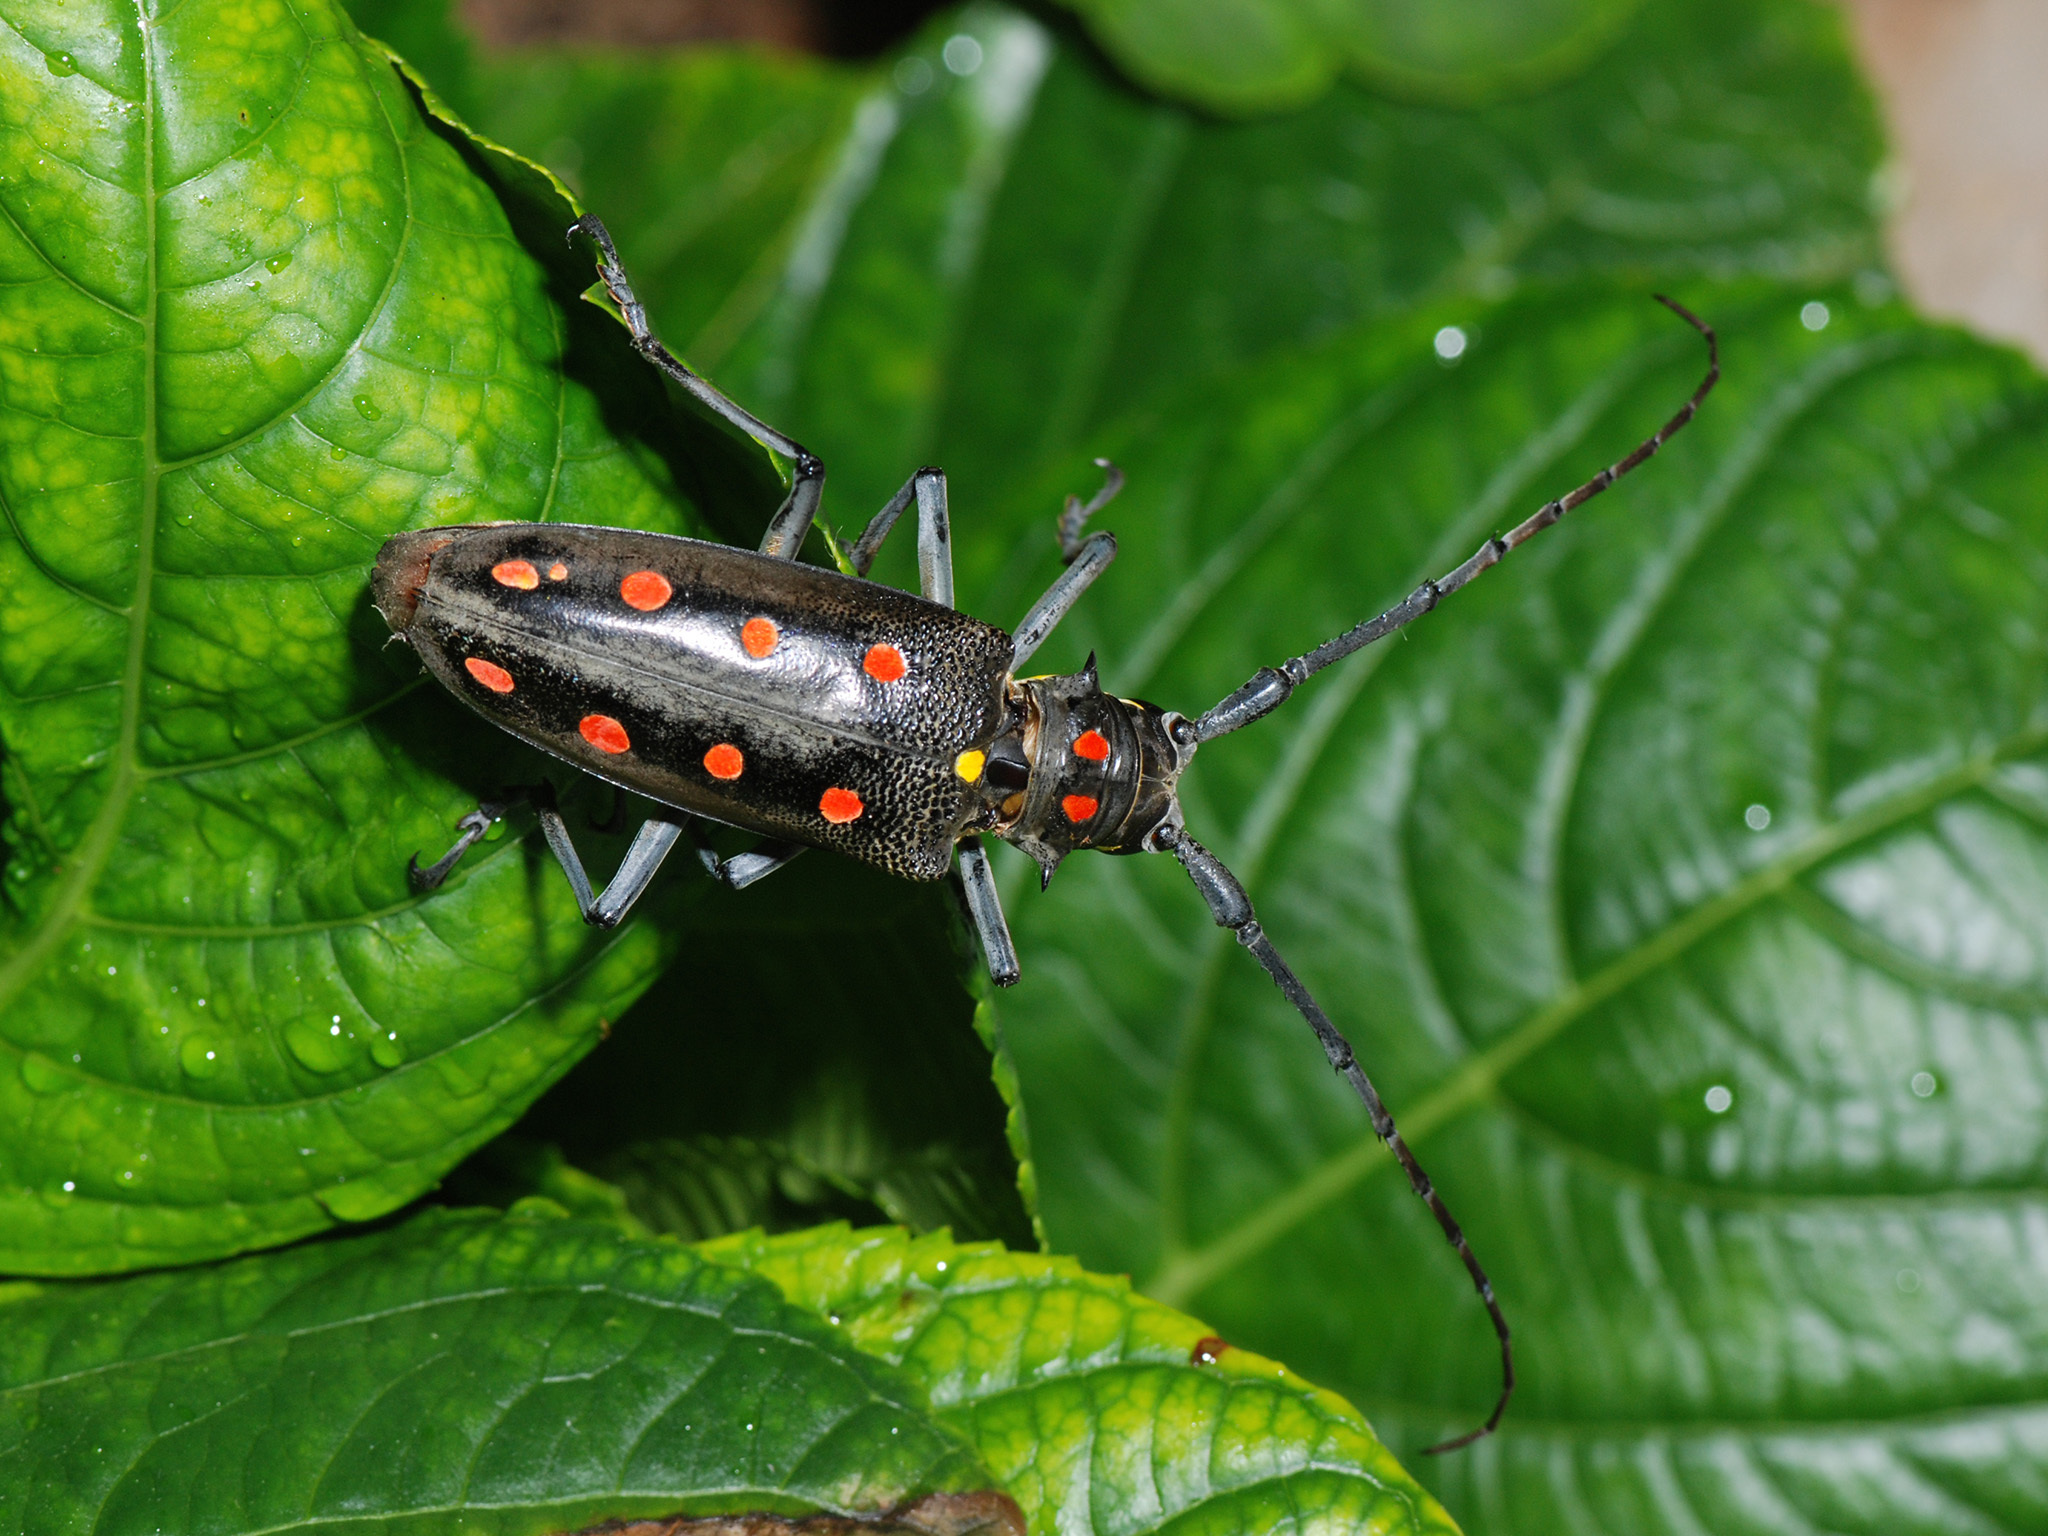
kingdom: Animalia
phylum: Arthropoda
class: Insecta
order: Coleoptera
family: Cerambycidae
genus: Batocera
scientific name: Batocera parryi
